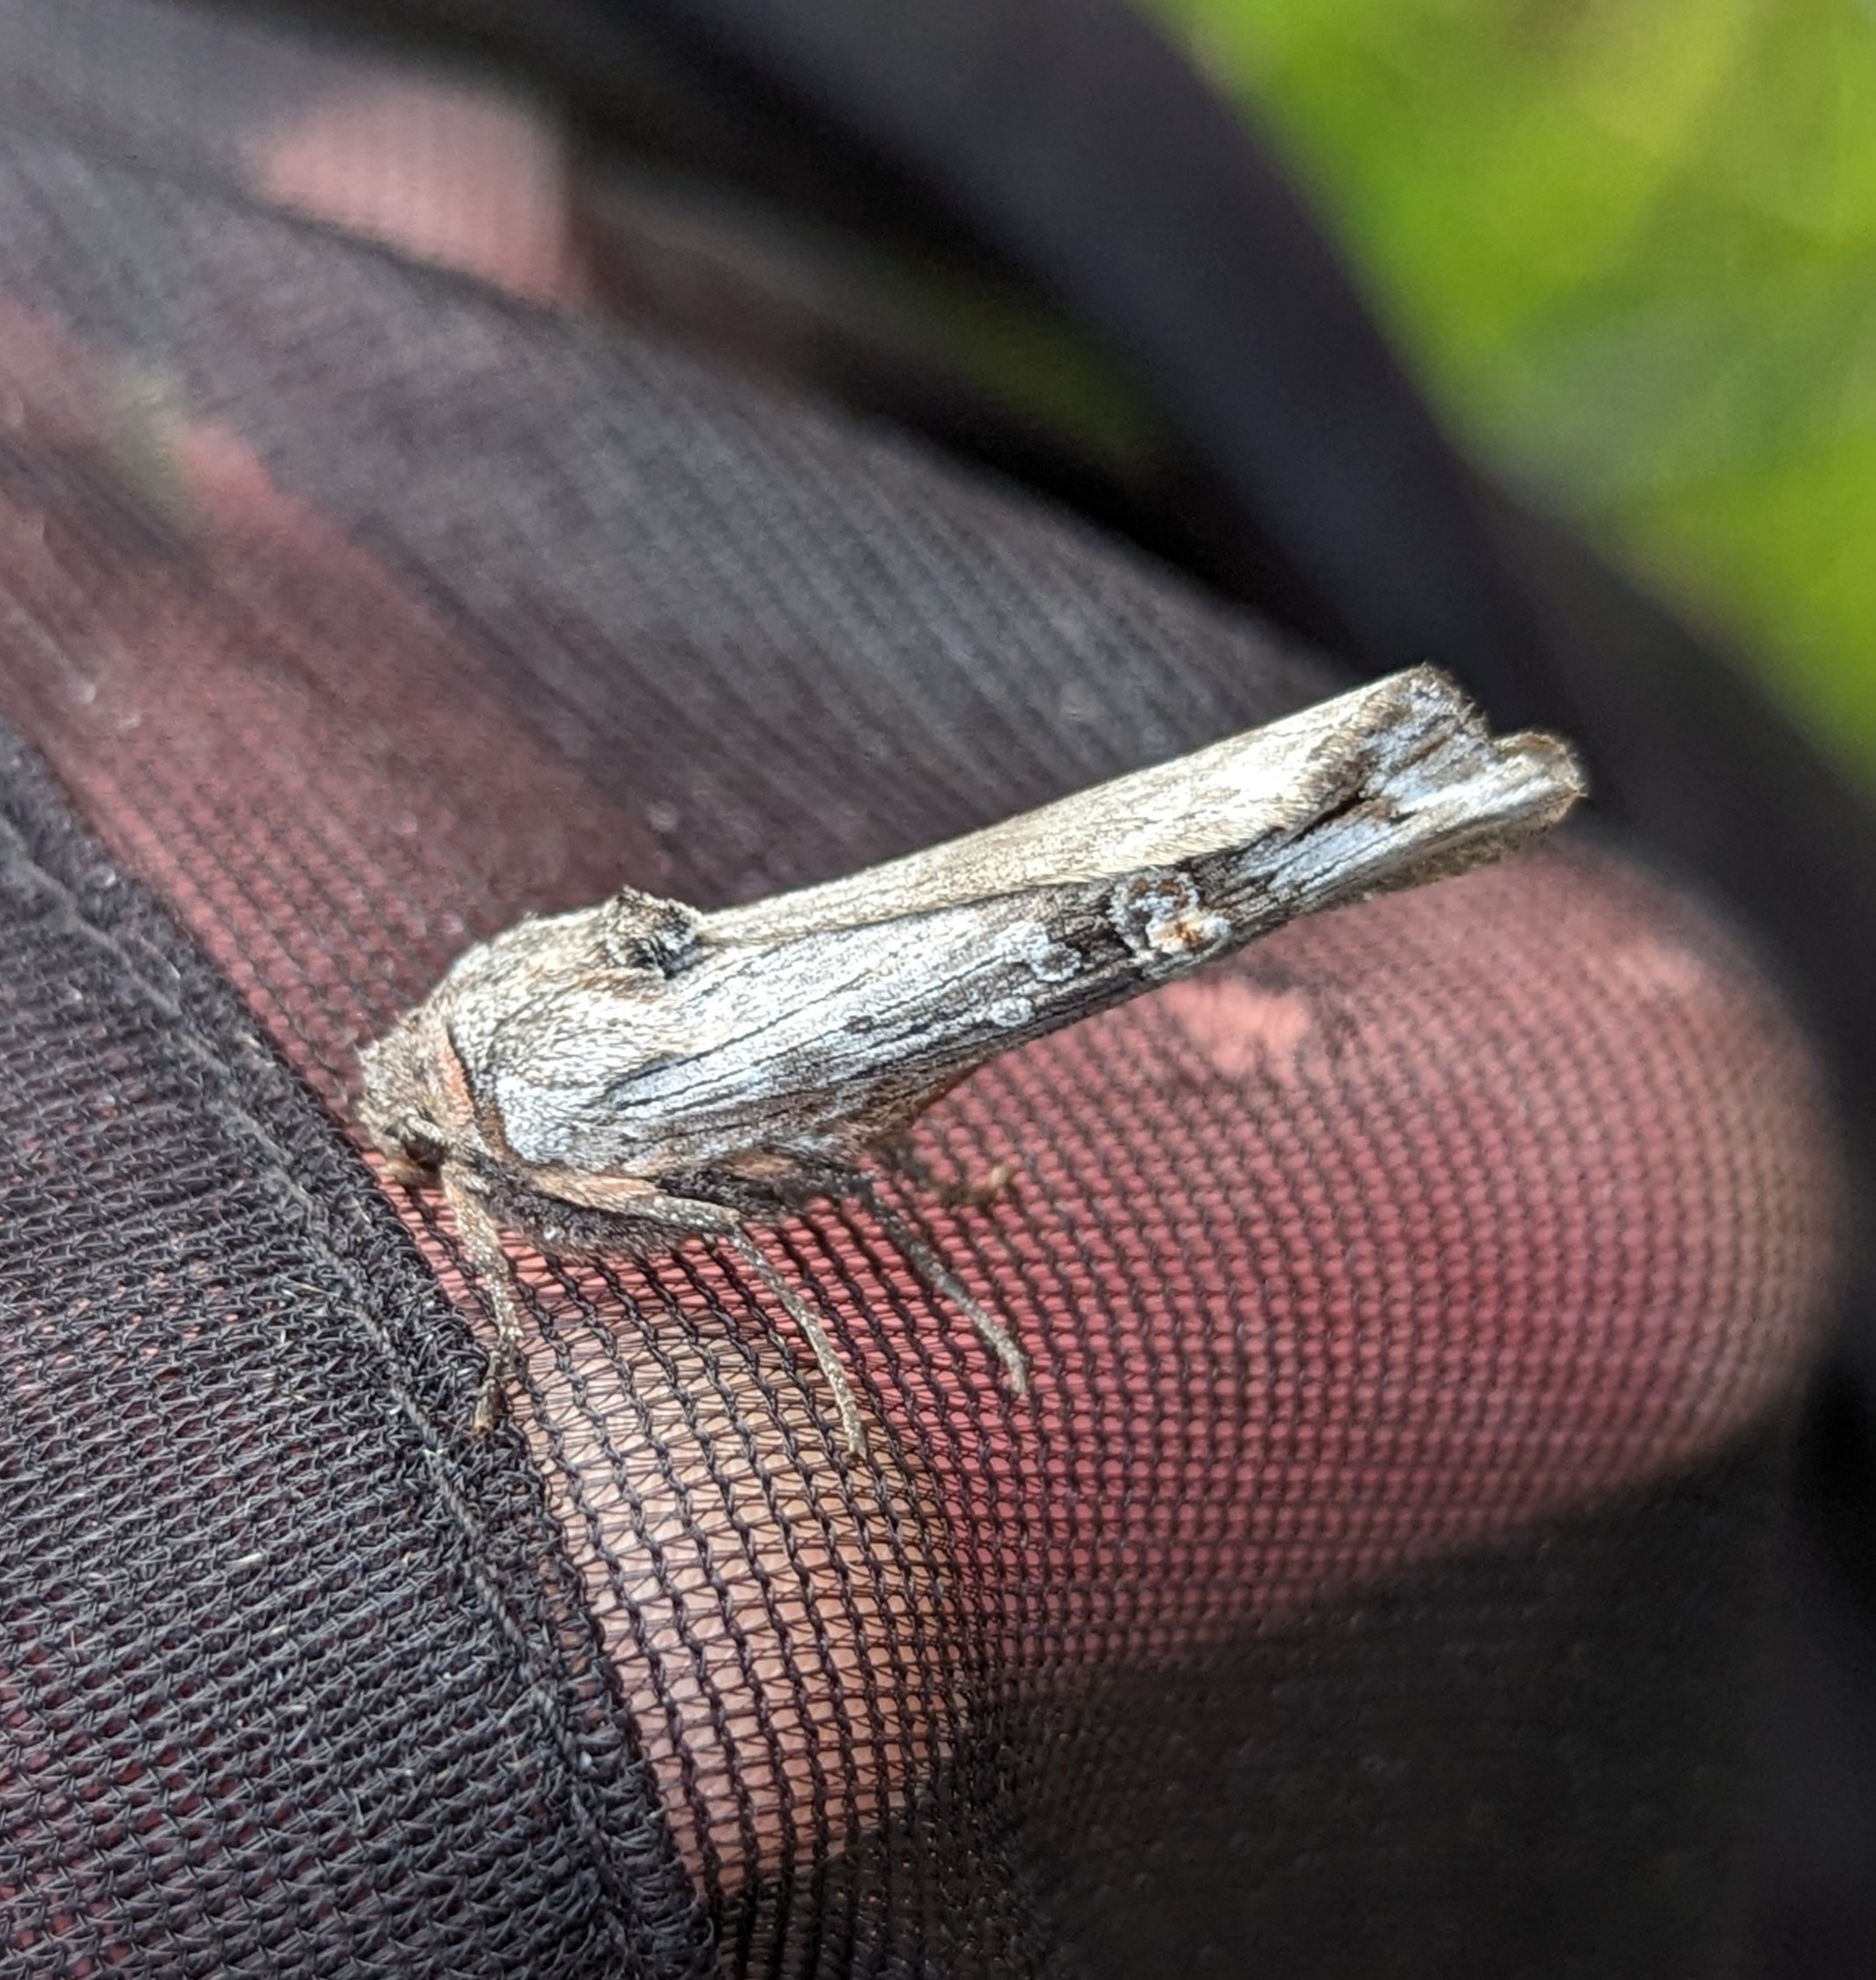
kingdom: Animalia
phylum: Arthropoda
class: Insecta
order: Lepidoptera
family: Noctuidae
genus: Xylena
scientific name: Xylena germana
